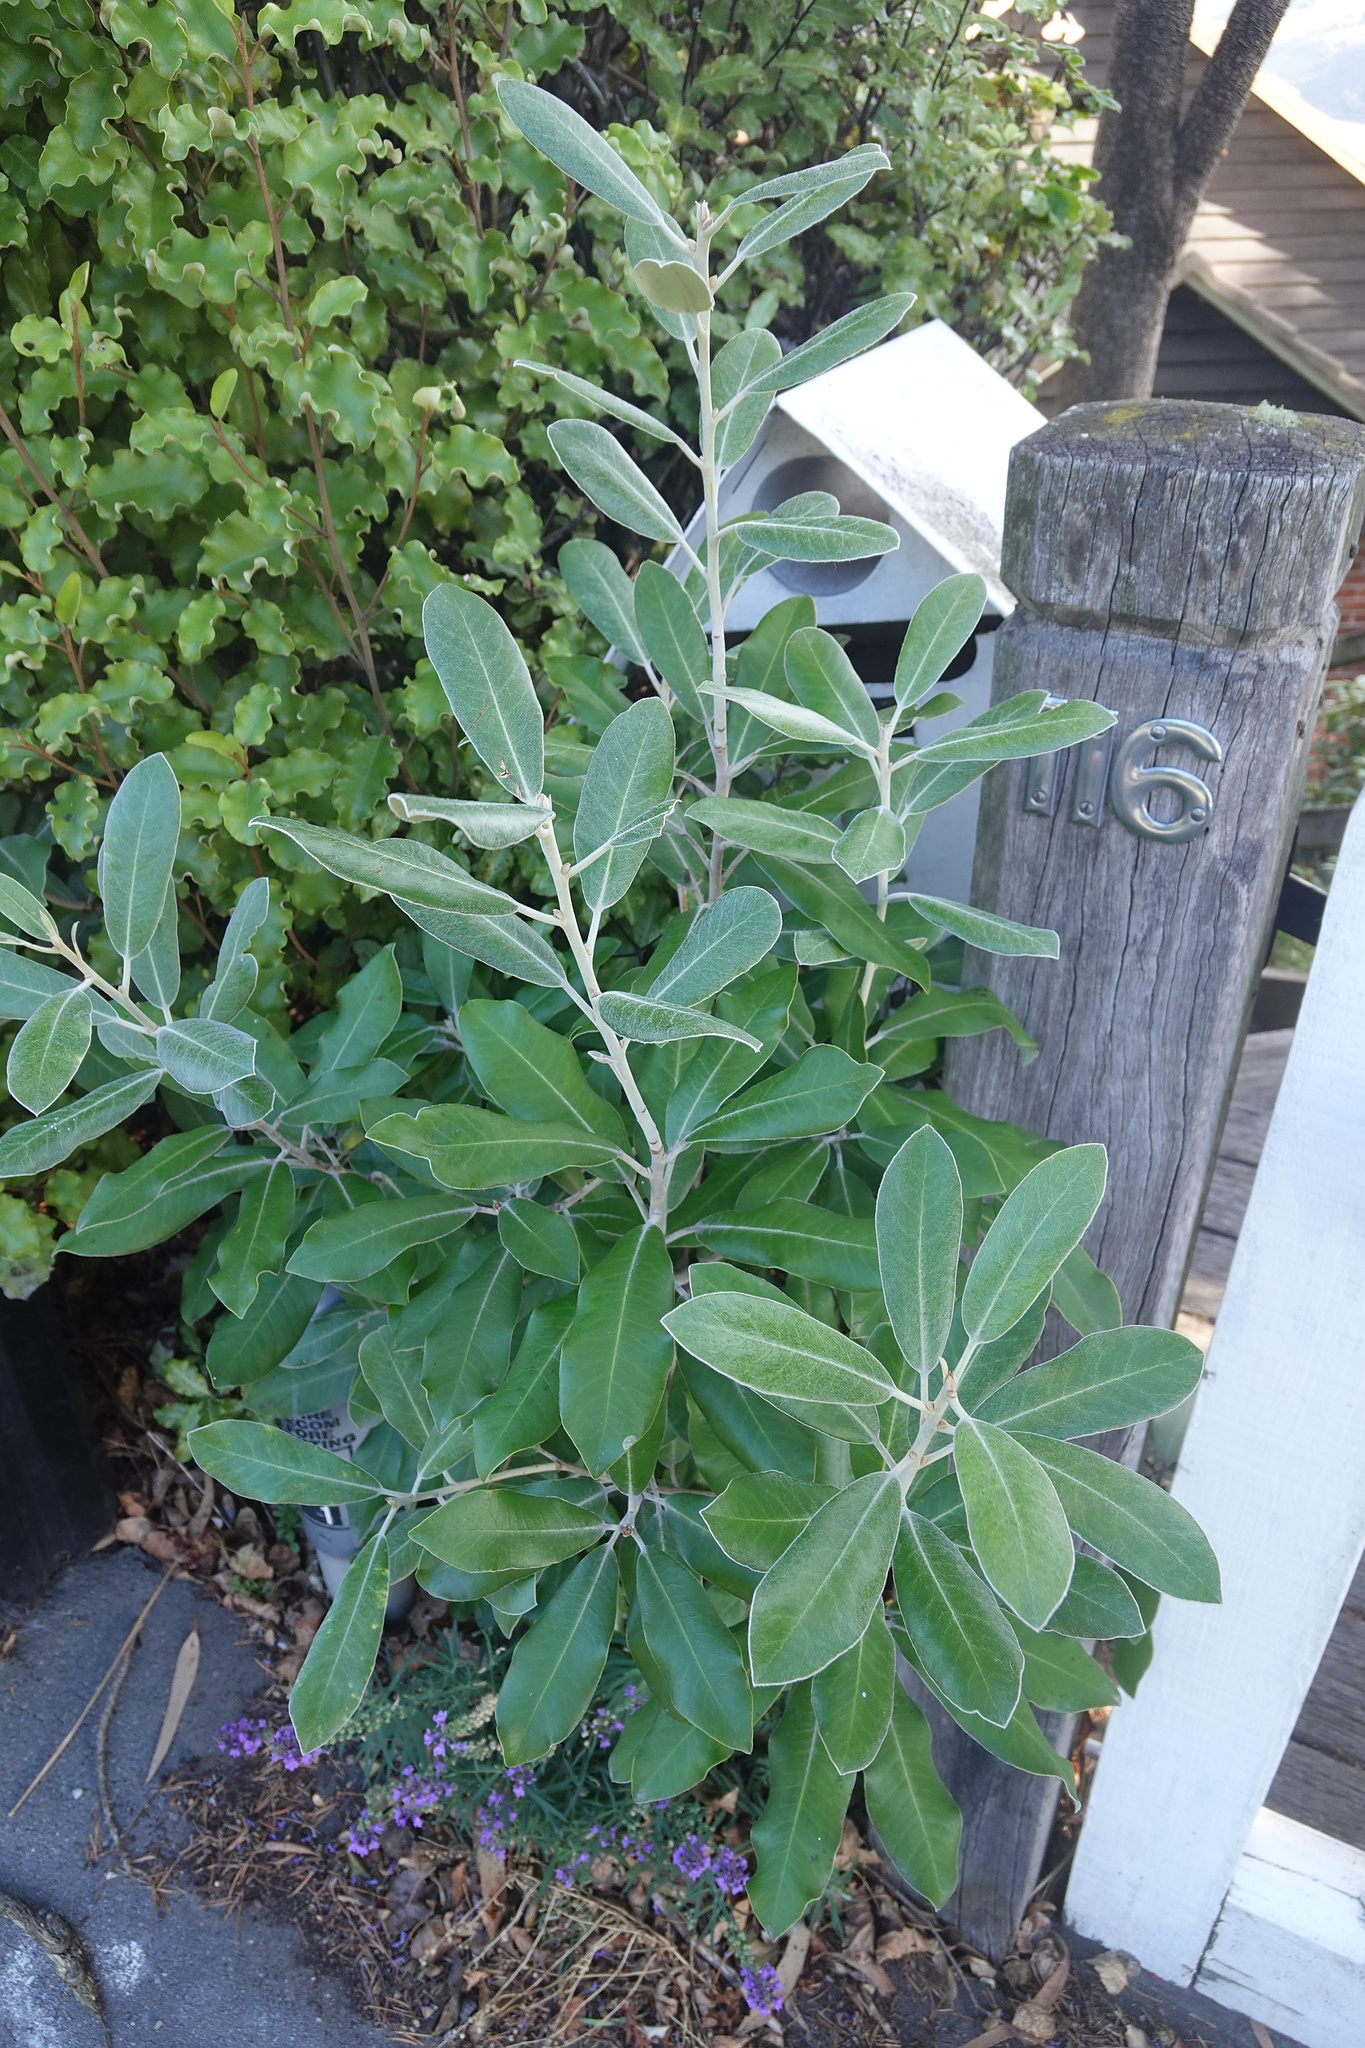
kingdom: Plantae
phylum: Tracheophyta
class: Magnoliopsida
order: Apiales
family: Pittosporaceae
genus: Pittosporum
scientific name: Pittosporum ralphii
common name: Ralph's desertwillow
